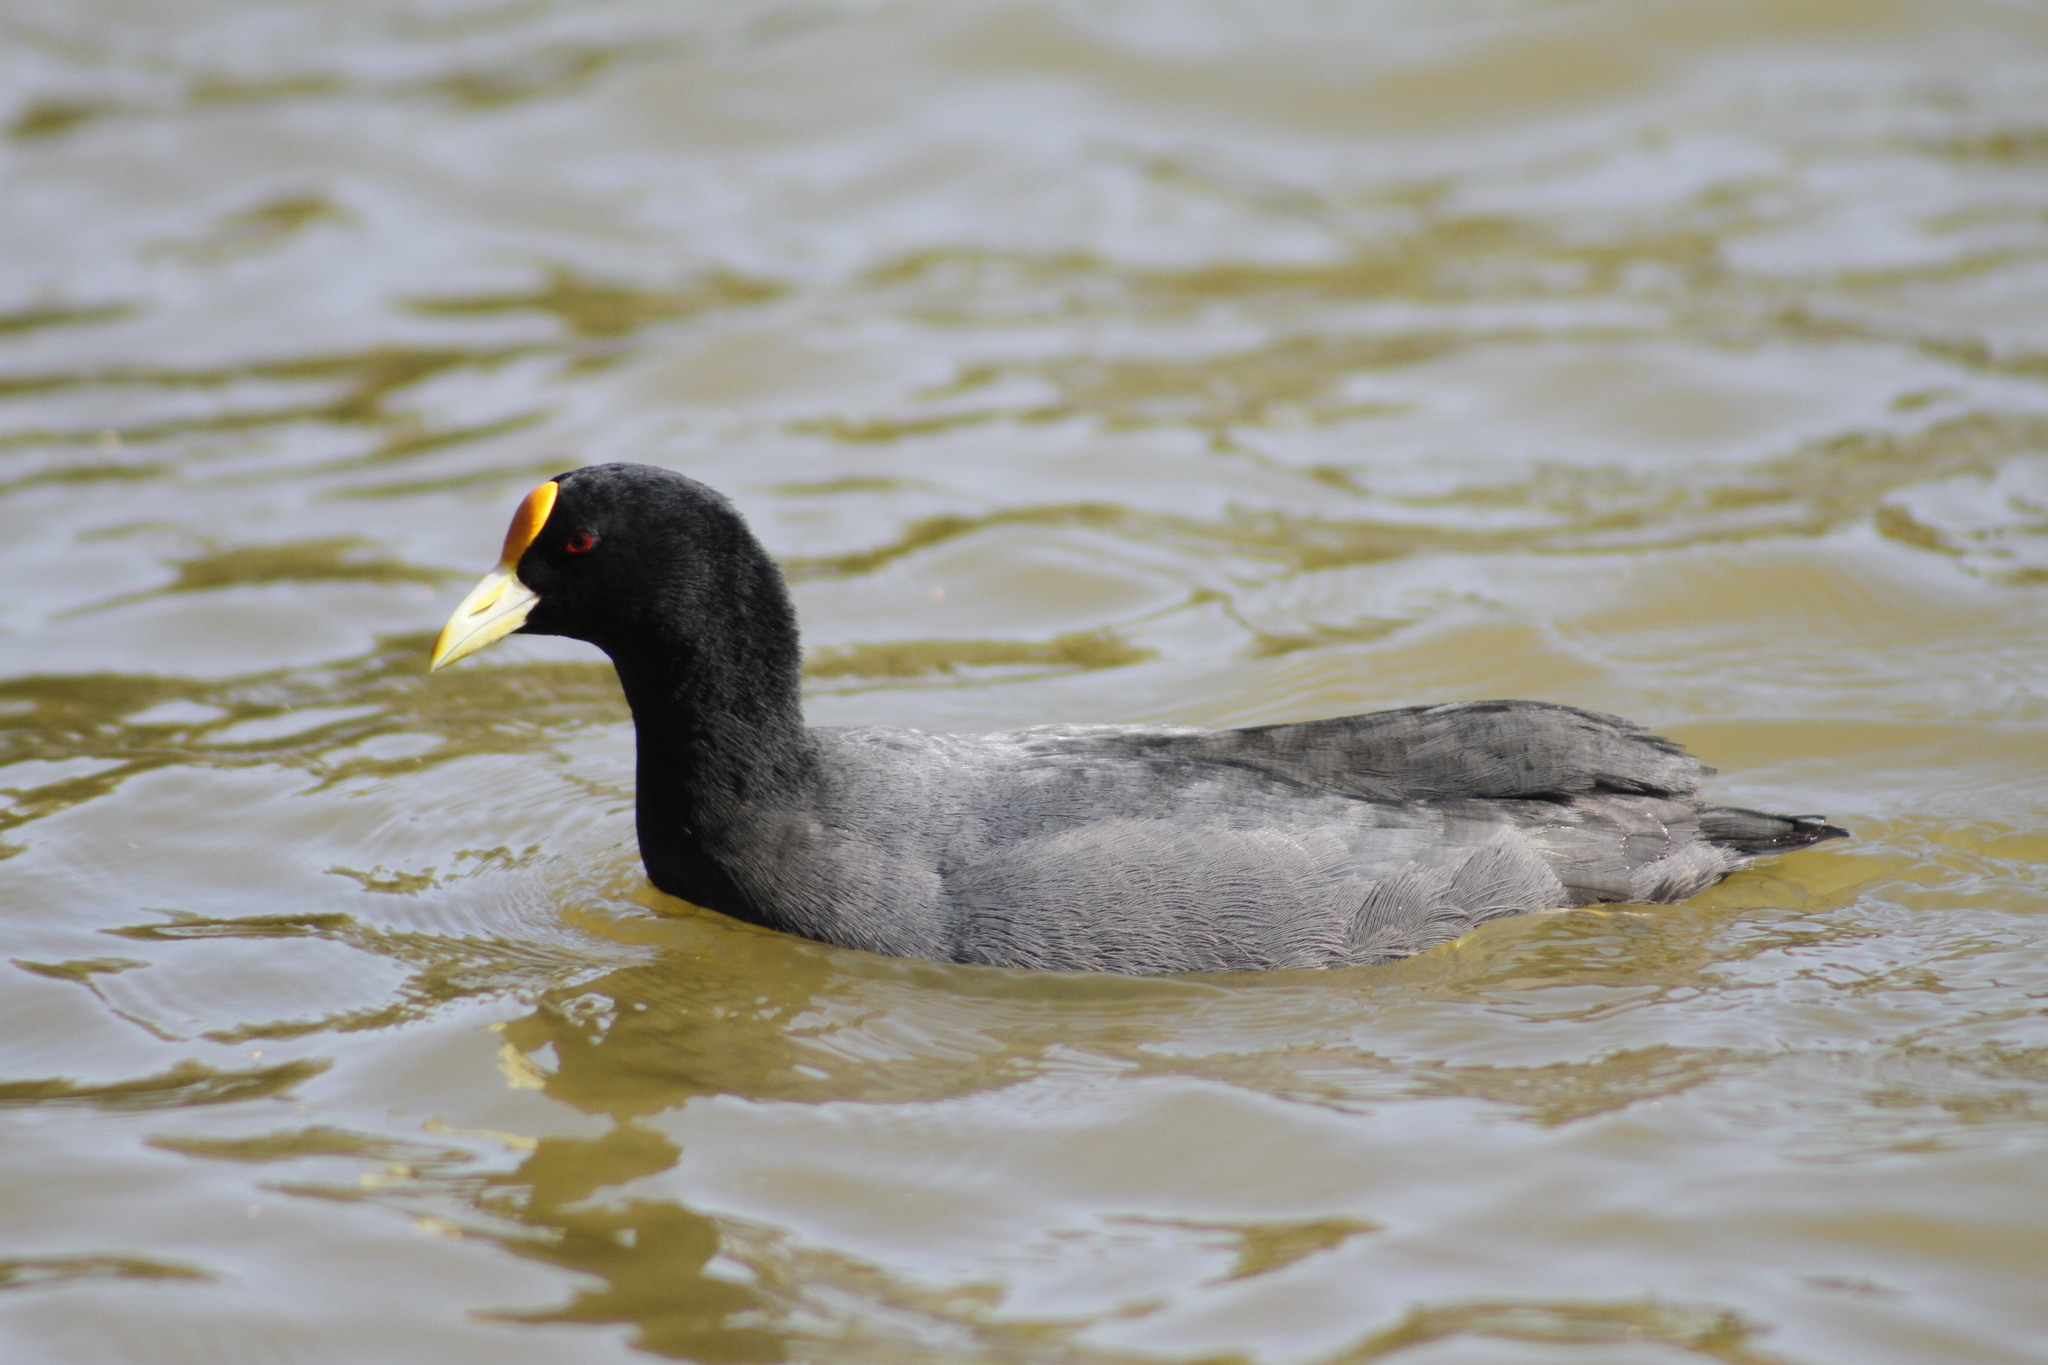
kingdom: Animalia
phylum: Chordata
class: Aves
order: Gruiformes
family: Rallidae
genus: Fulica
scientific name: Fulica leucoptera
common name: White-winged coot
